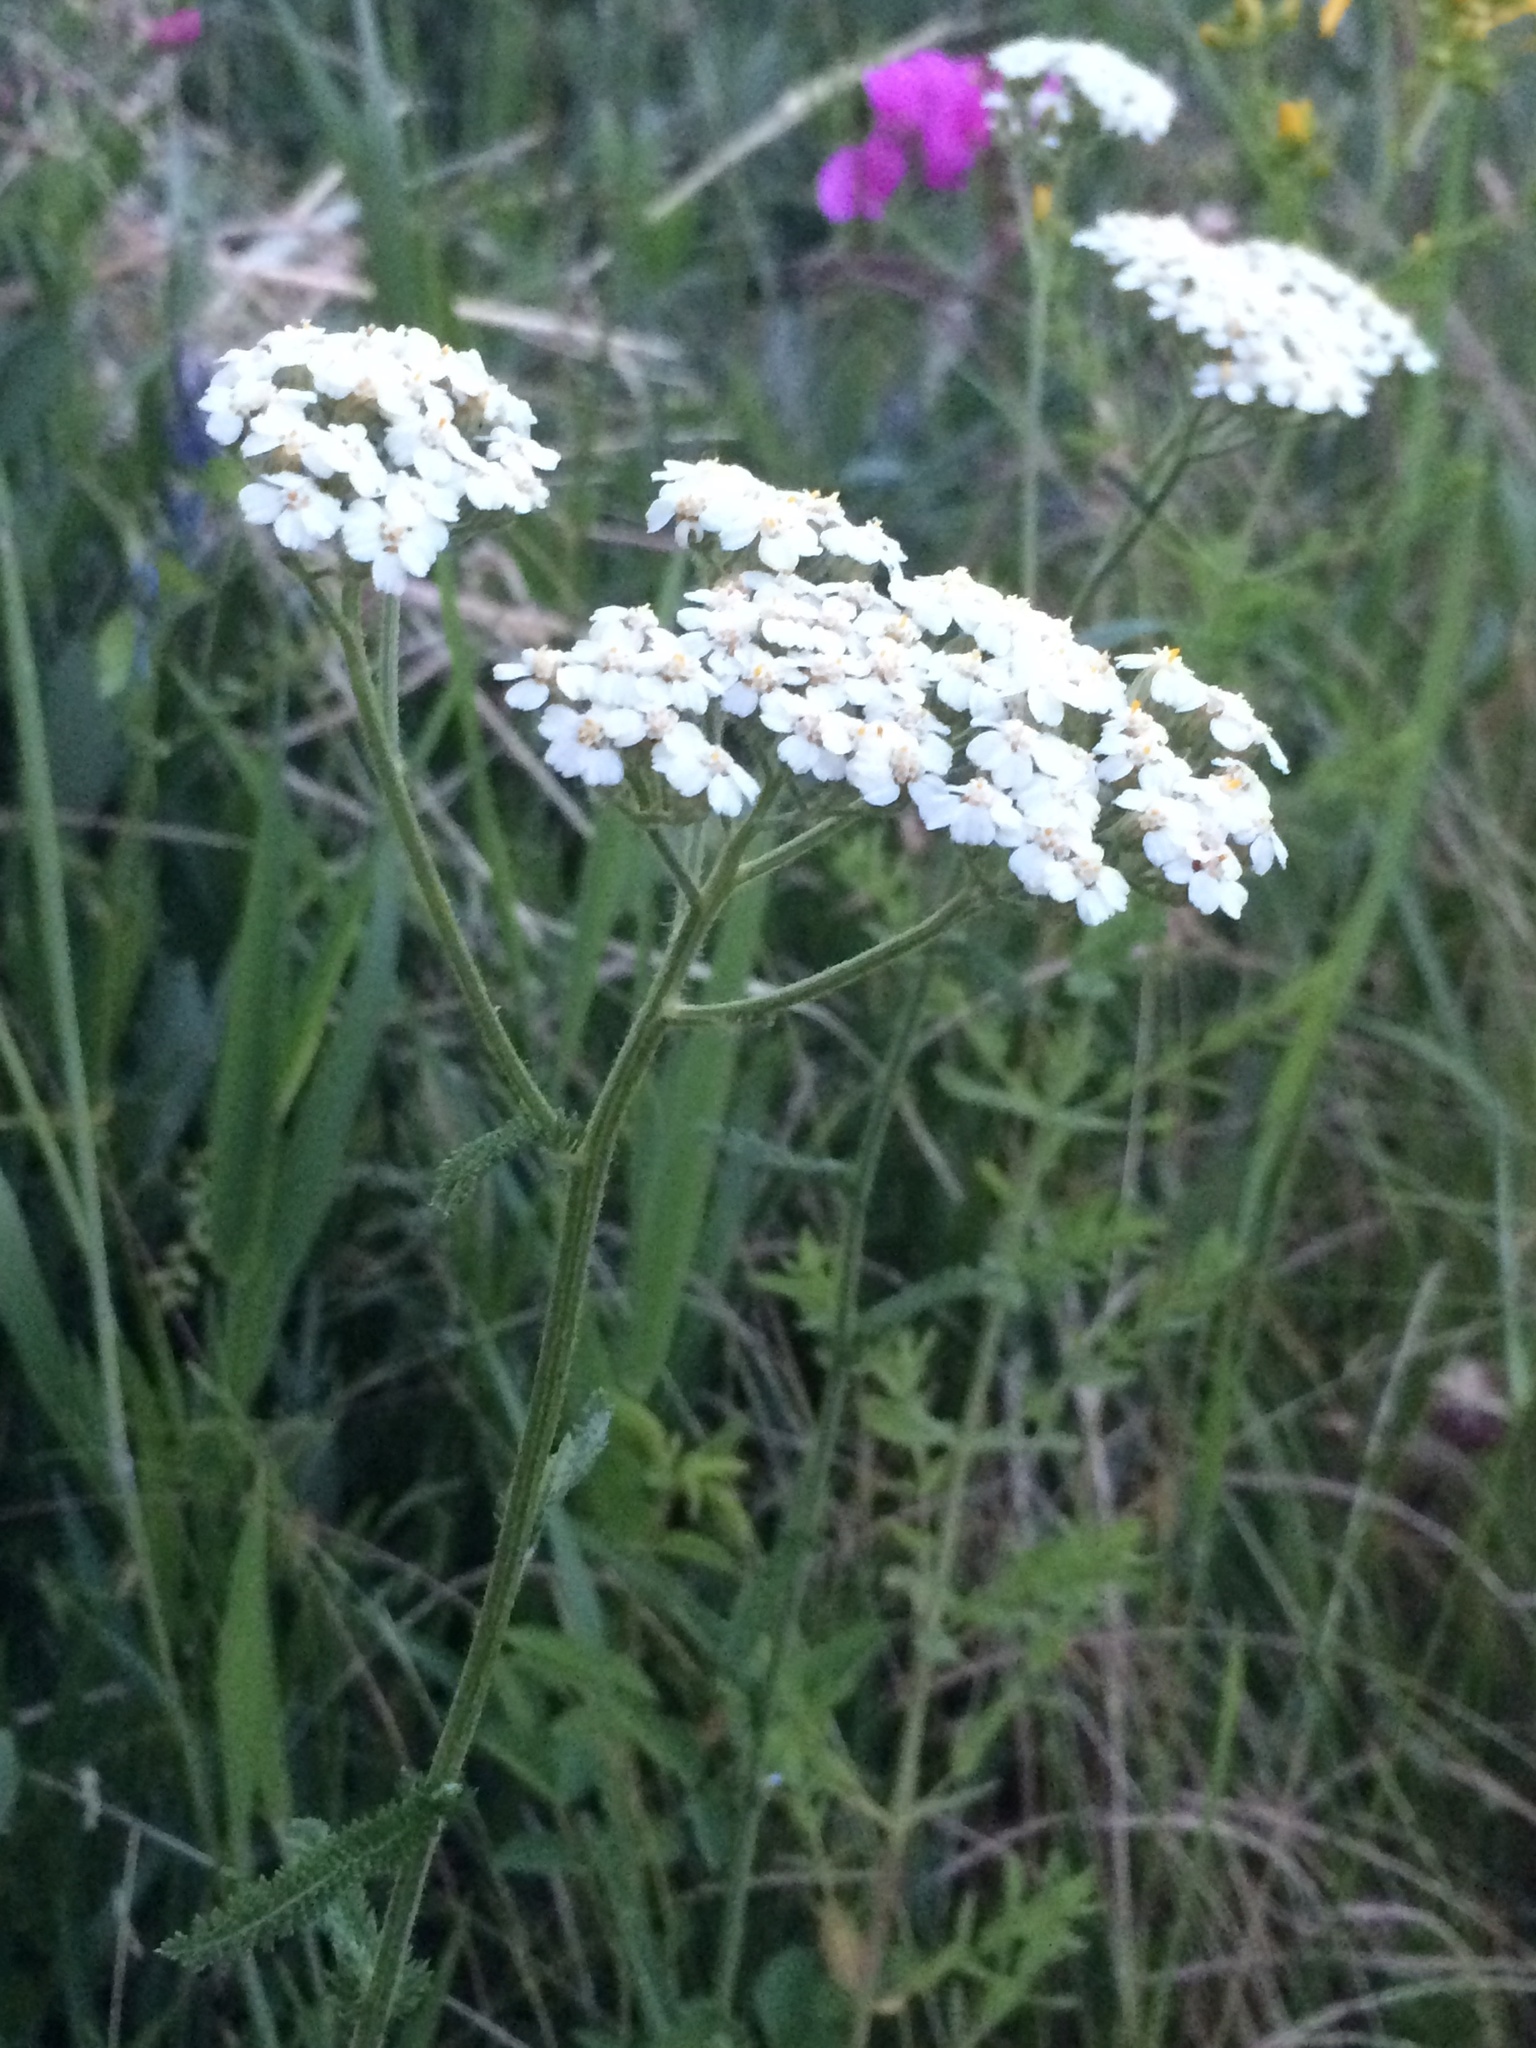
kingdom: Plantae
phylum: Tracheophyta
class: Magnoliopsida
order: Asterales
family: Asteraceae
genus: Achillea
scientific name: Achillea millefolium
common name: Yarrow
